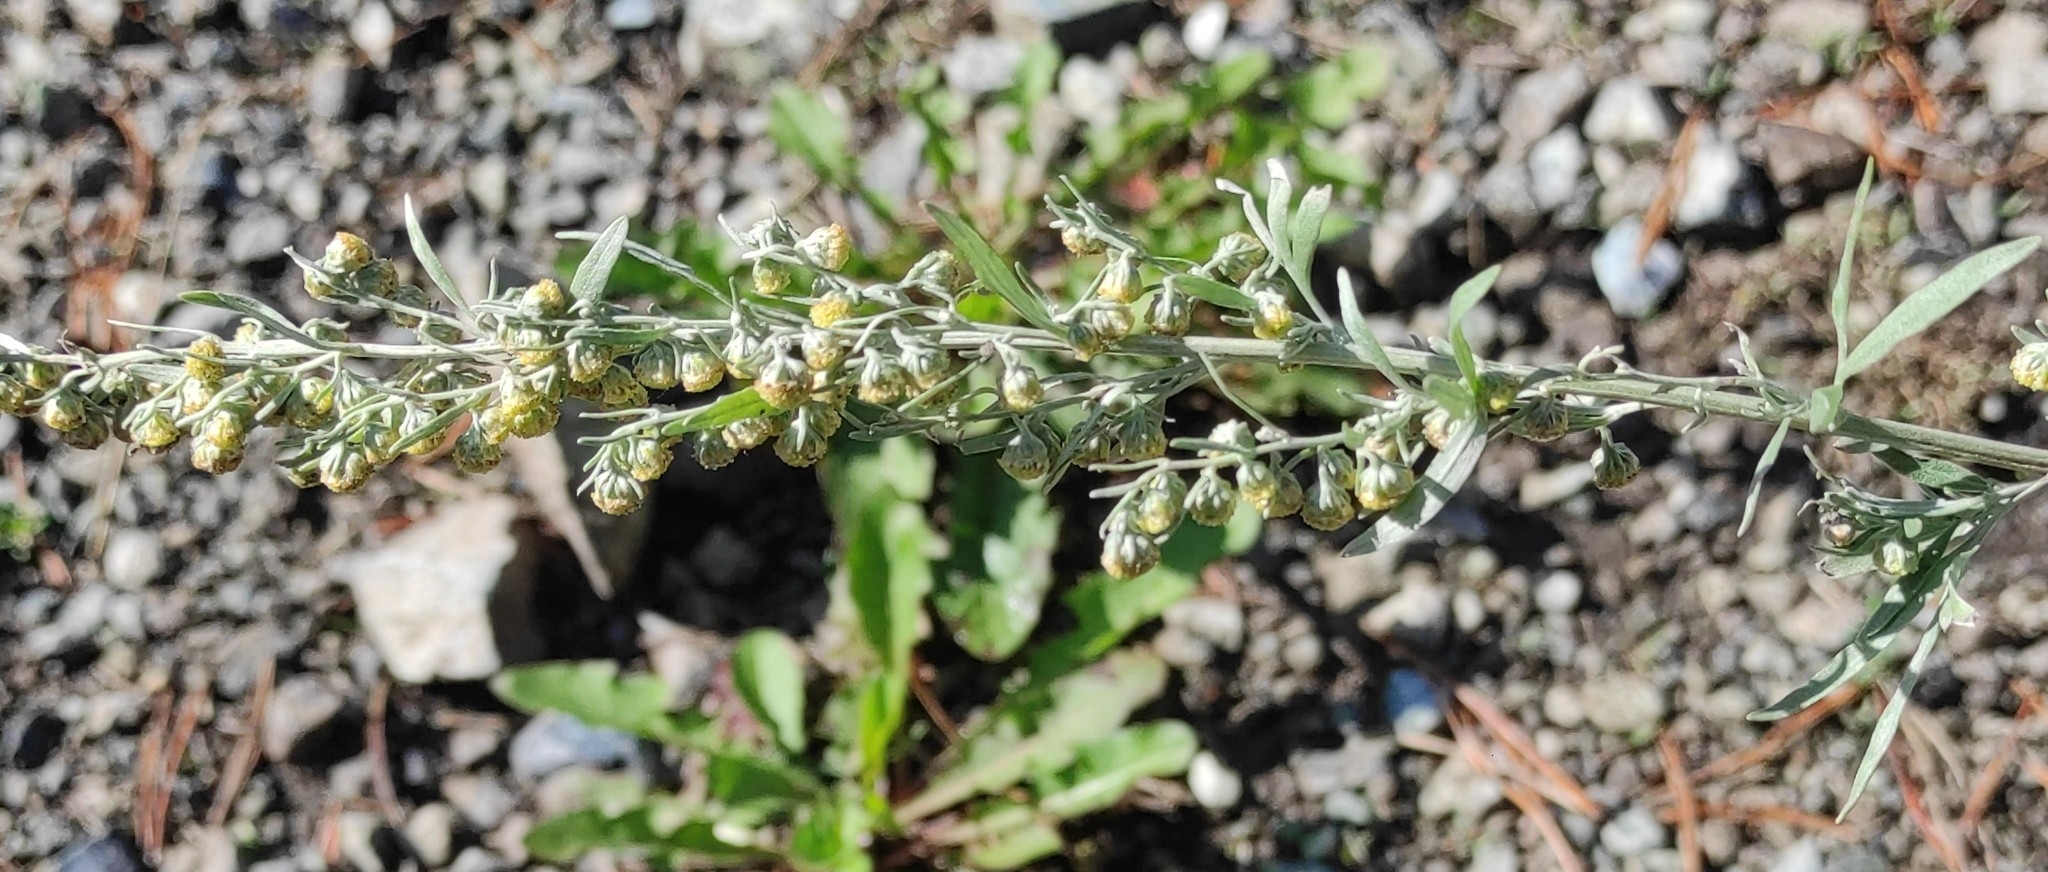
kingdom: Plantae
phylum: Tracheophyta
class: Magnoliopsida
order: Asterales
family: Asteraceae
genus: Artemisia
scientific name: Artemisia absinthium
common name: Wormwood
